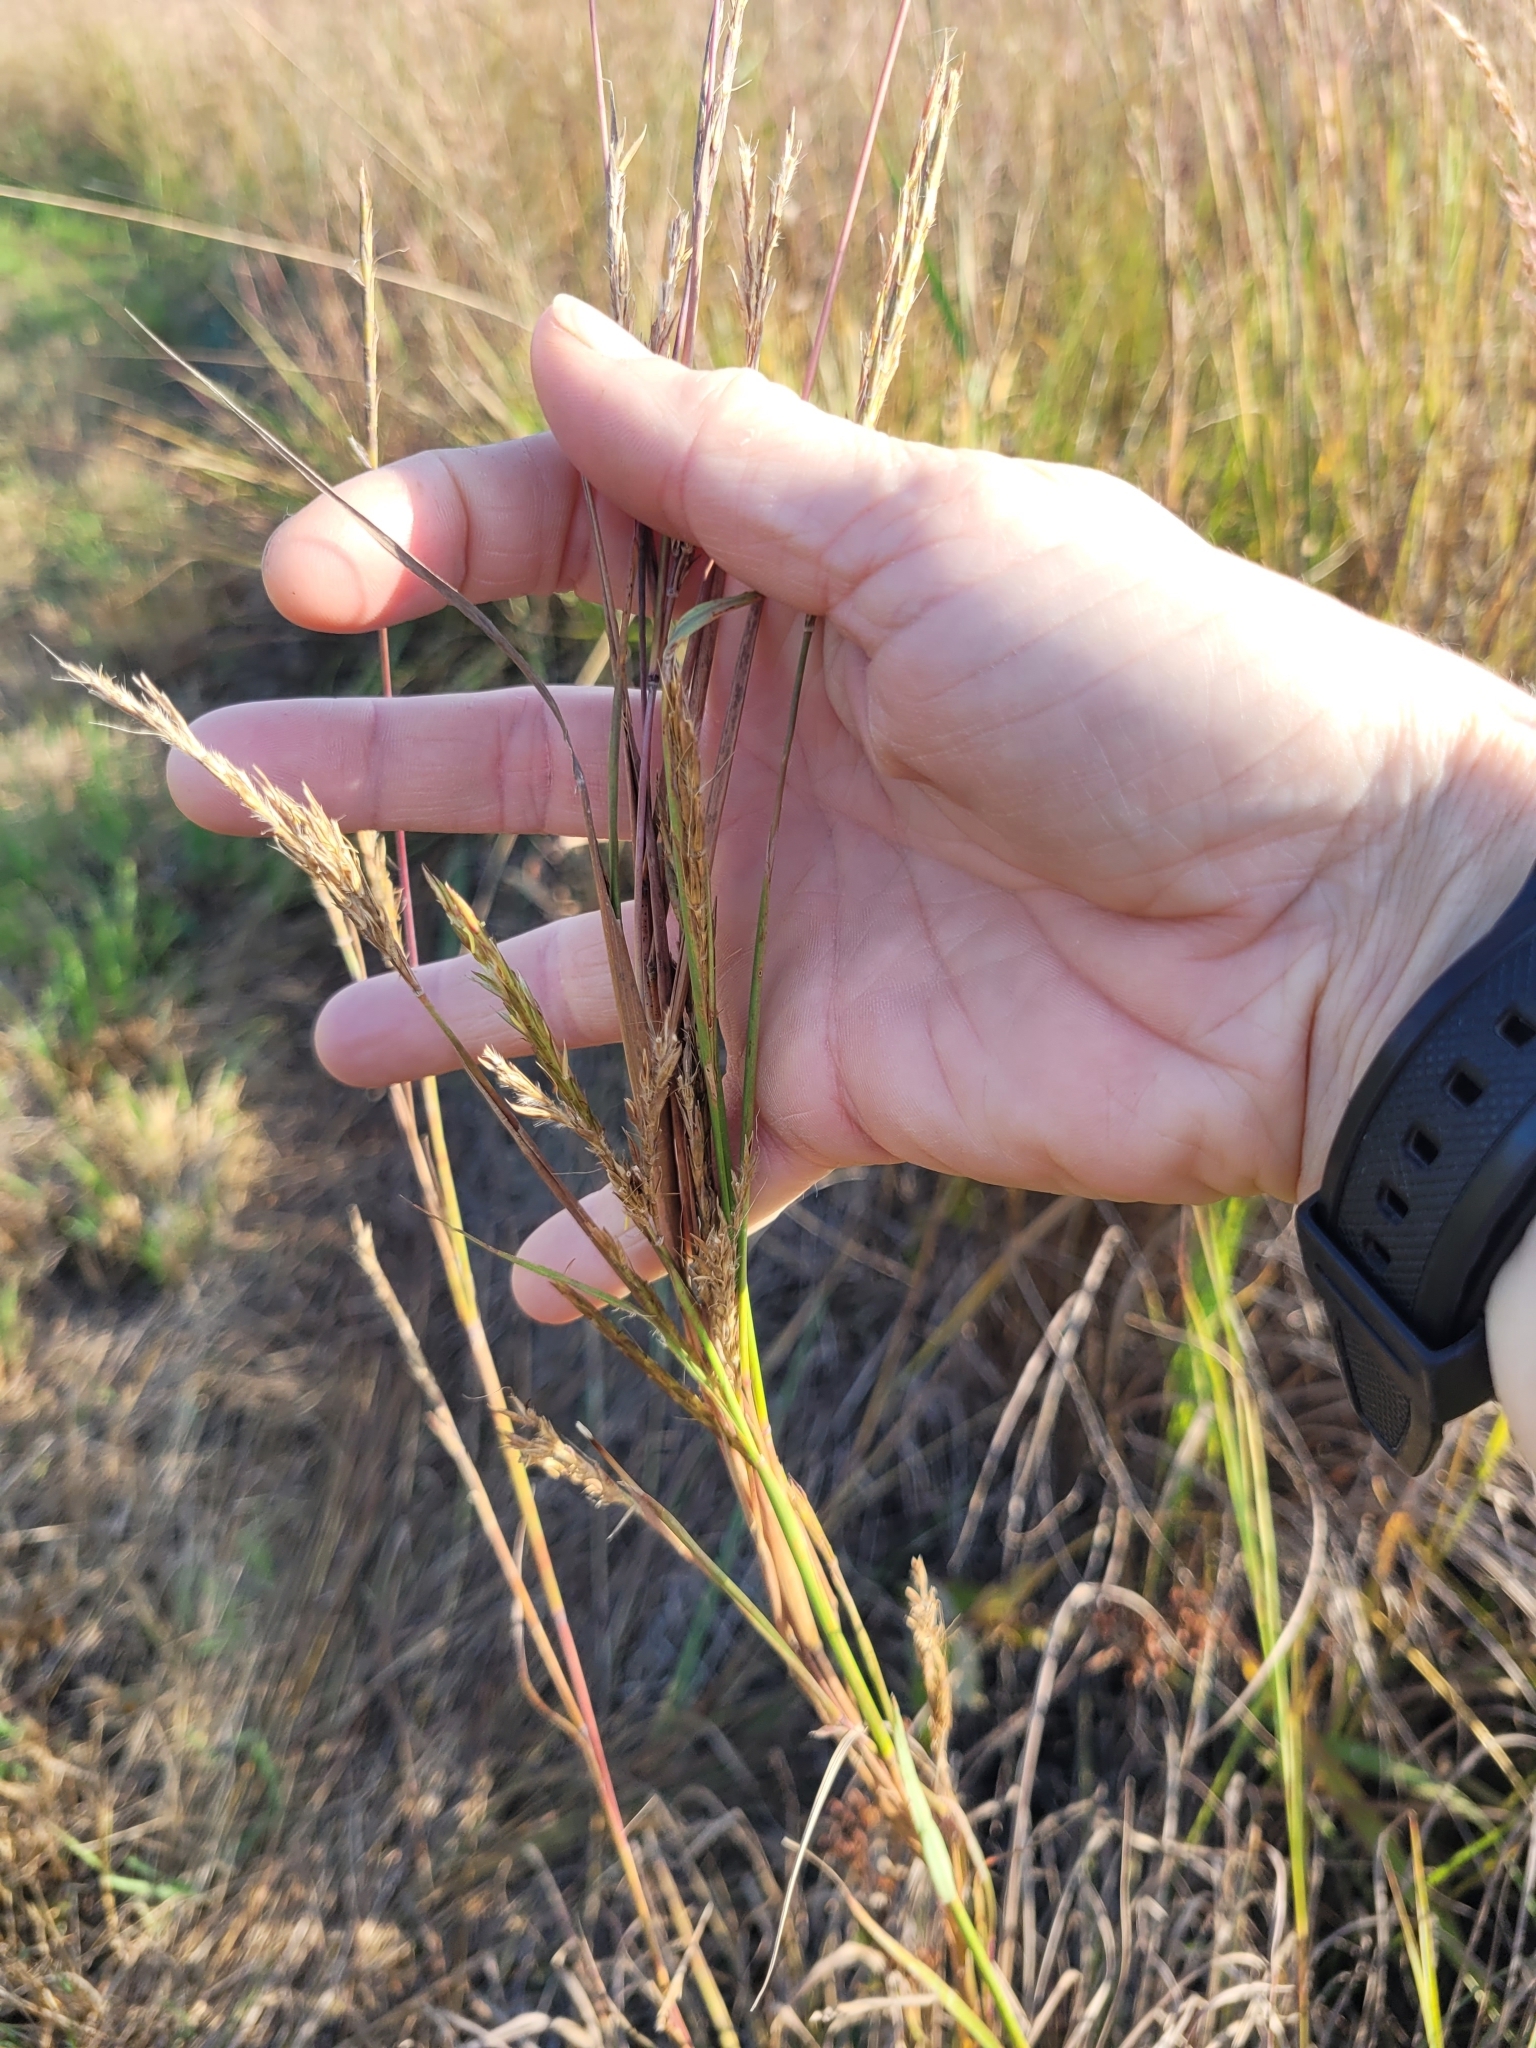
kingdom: Plantae
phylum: Tracheophyta
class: Liliopsida
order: Poales
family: Poaceae
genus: Andropogon
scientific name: Andropogon gerardi
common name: Big bluestem
